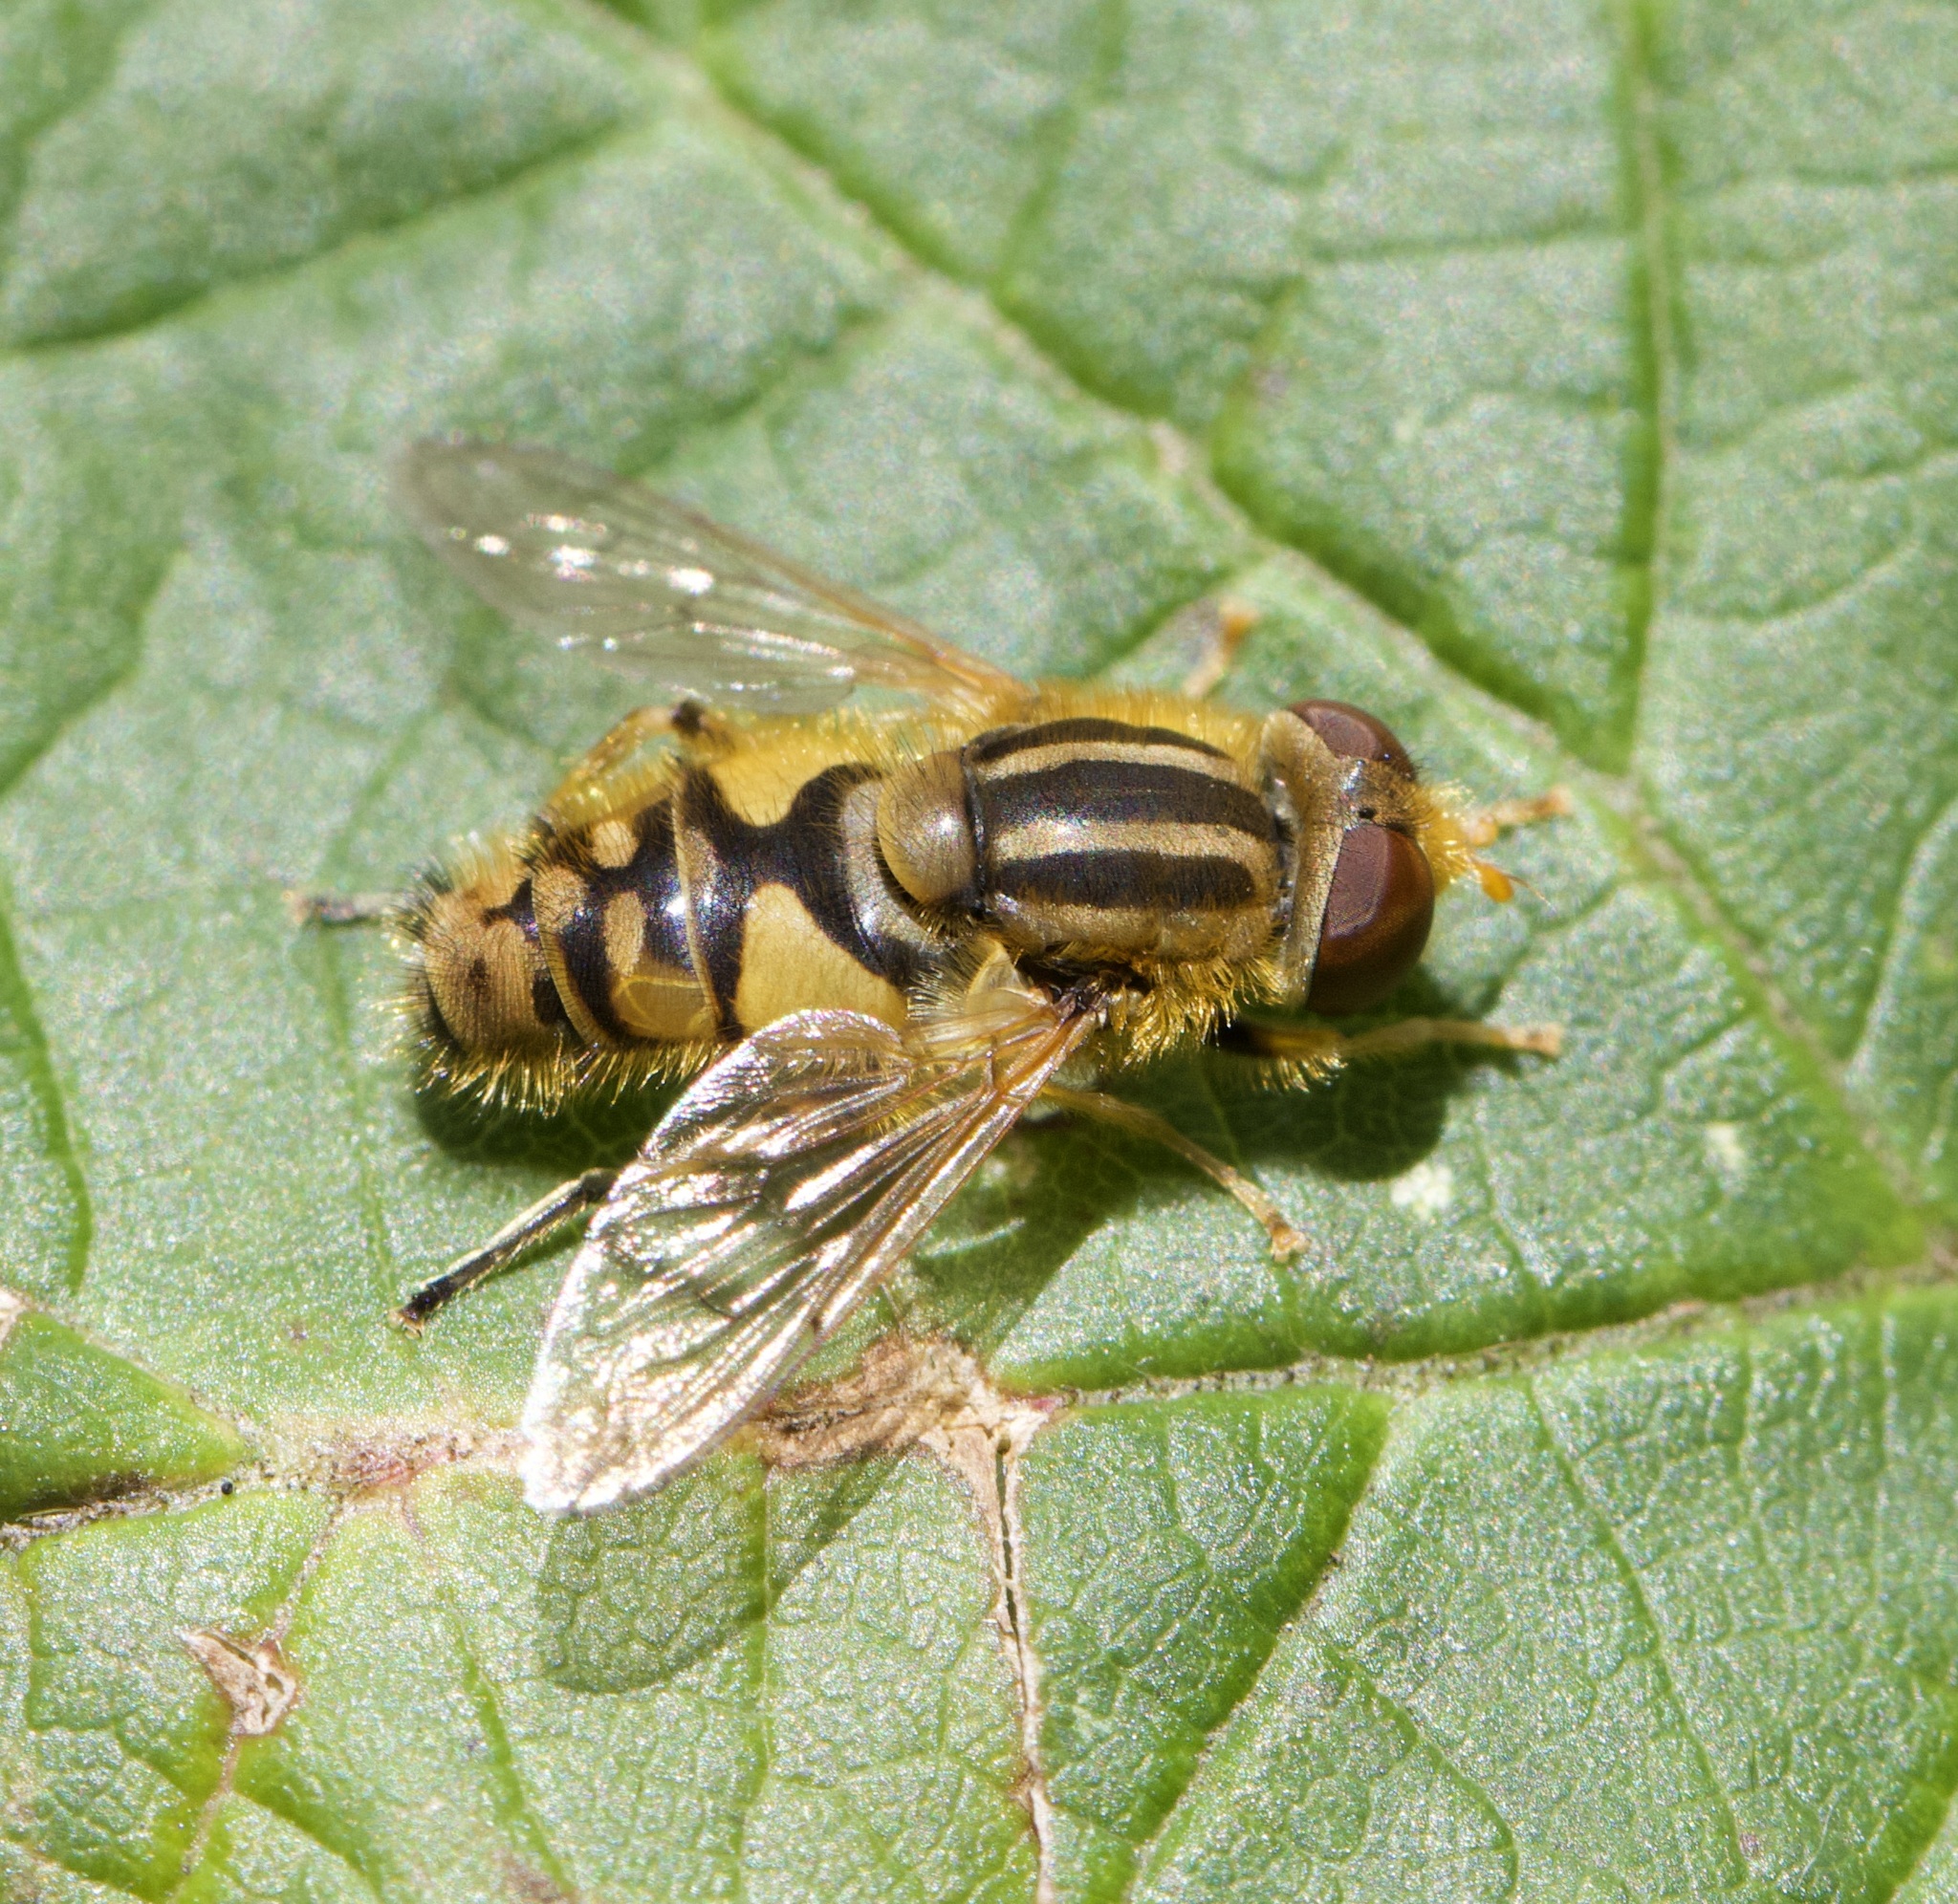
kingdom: Animalia
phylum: Arthropoda
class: Insecta
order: Diptera
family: Syrphidae
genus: Parhelophilus
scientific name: Parhelophilus
